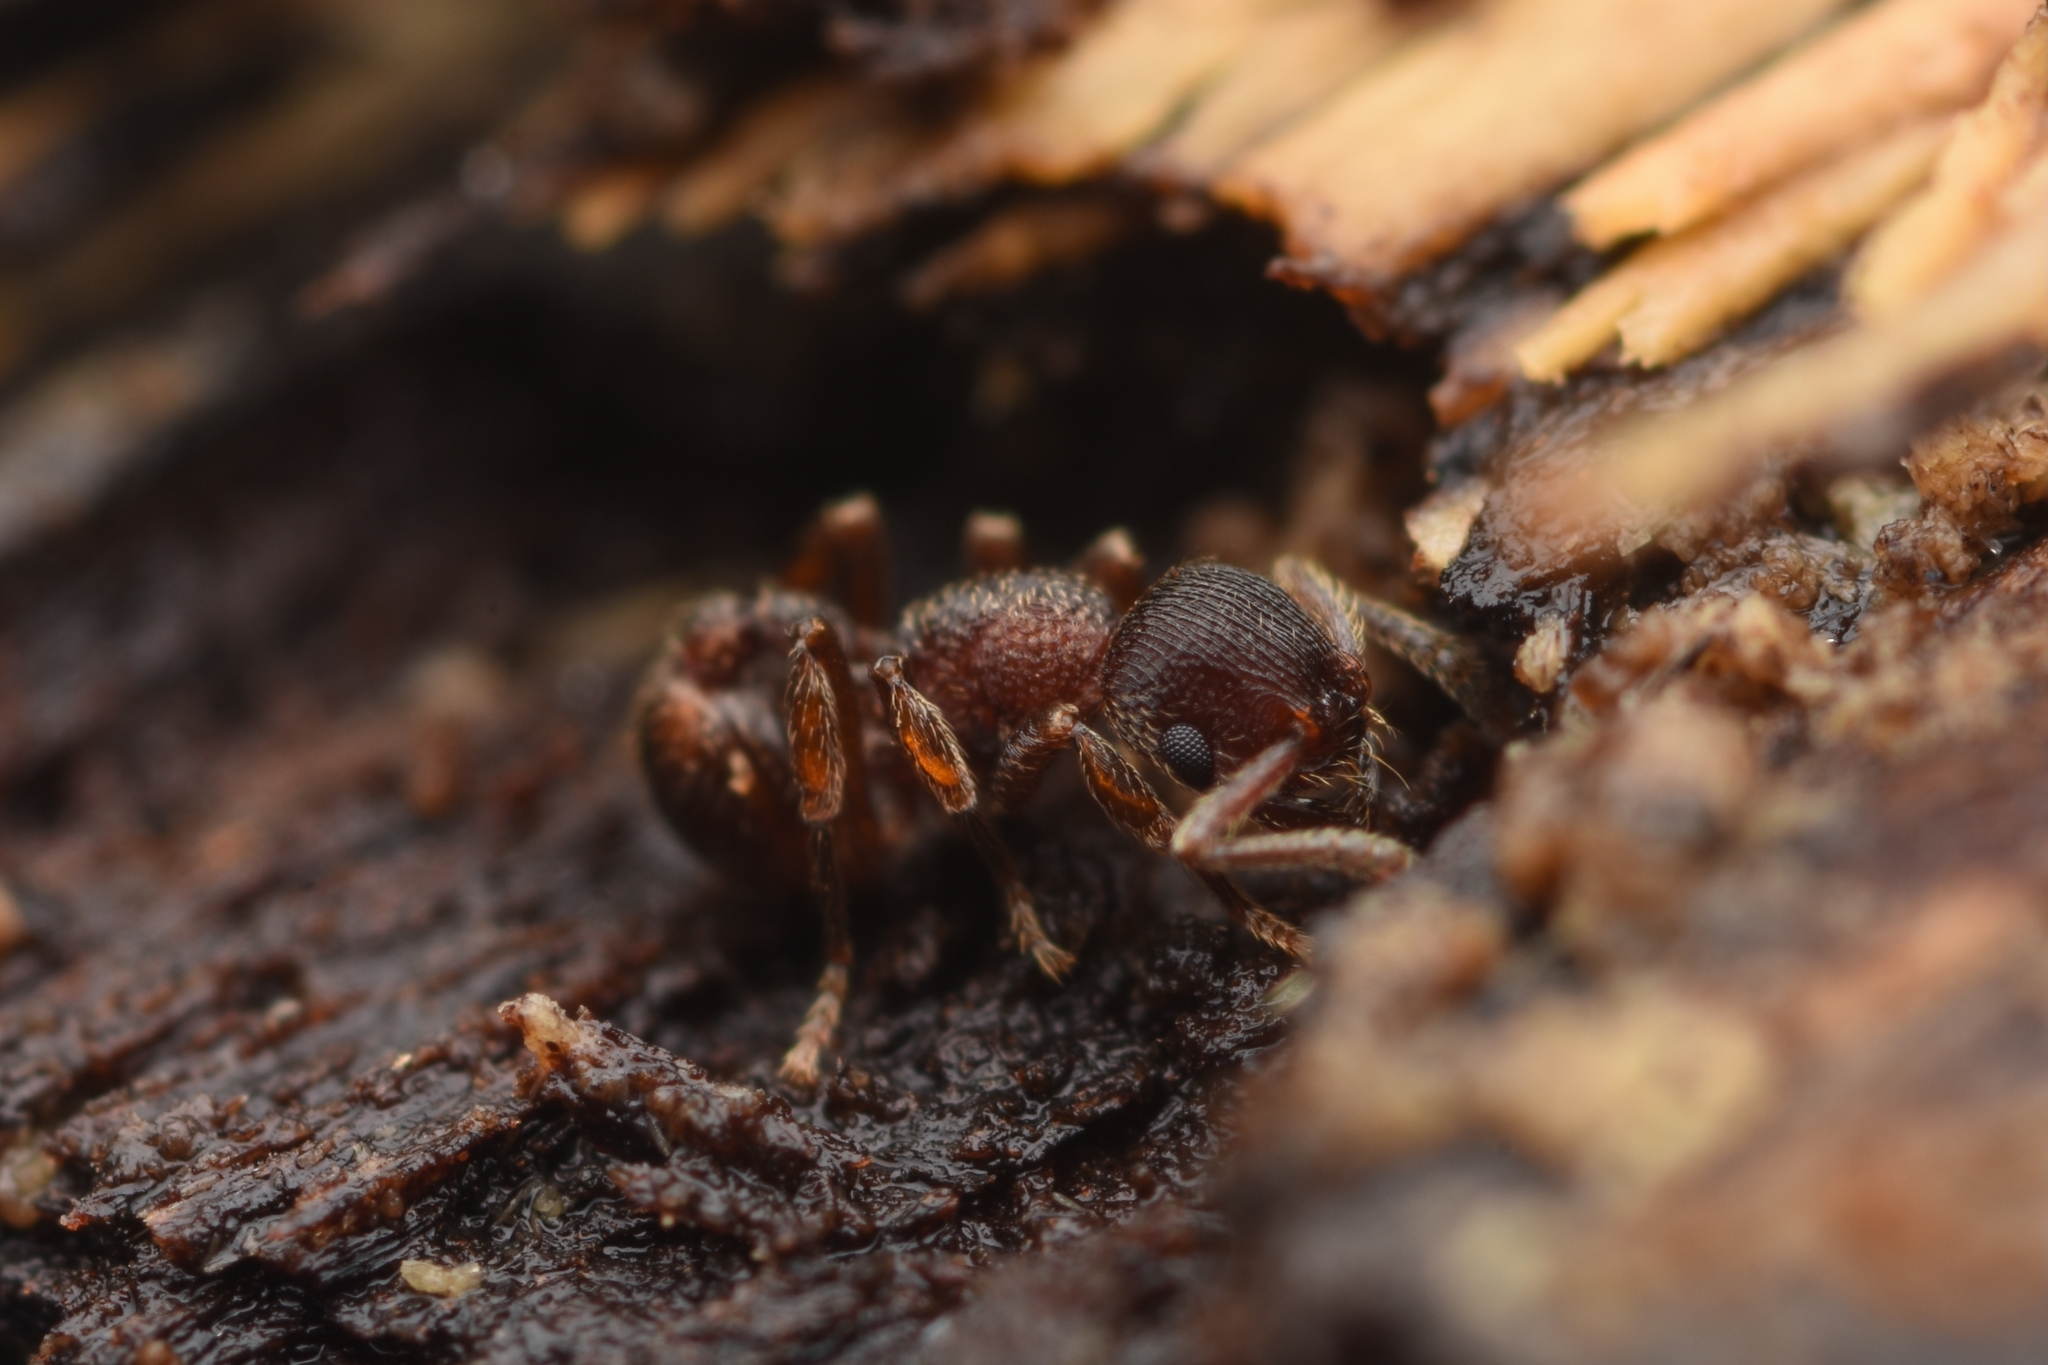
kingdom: Animalia
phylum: Arthropoda
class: Insecta
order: Hymenoptera
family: Formicidae
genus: Hylomyrma
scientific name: Hylomyrma transversa
